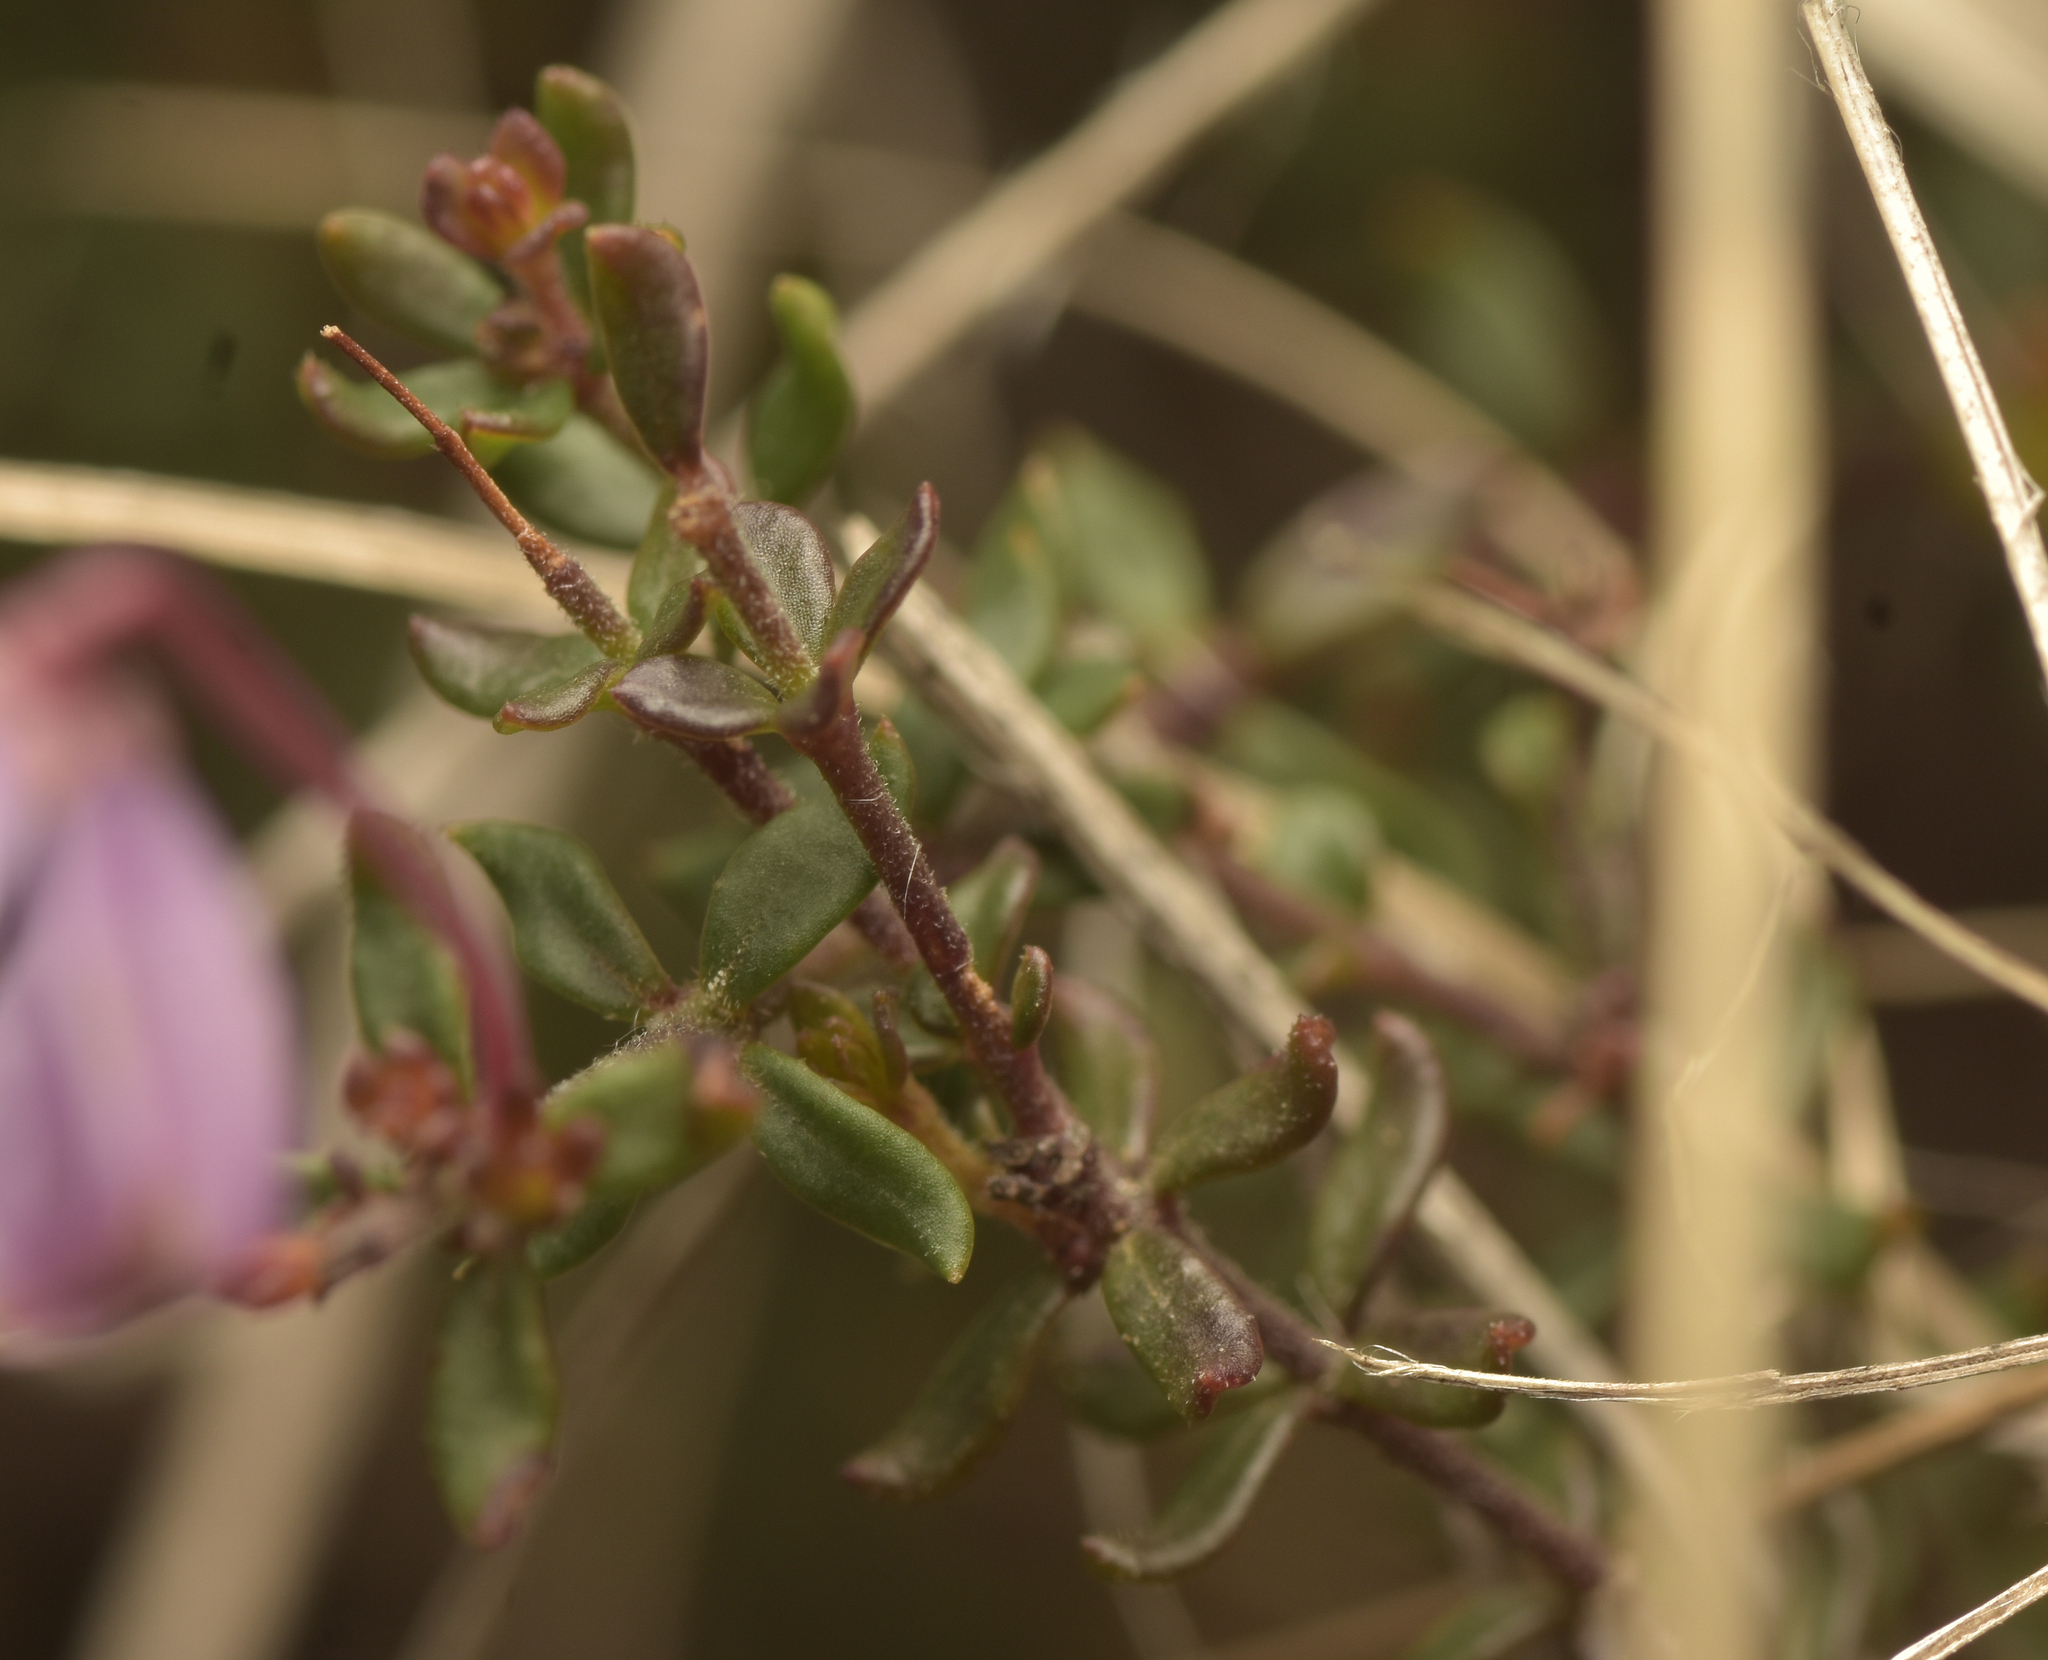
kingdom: Plantae
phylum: Tracheophyta
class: Magnoliopsida
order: Oxalidales
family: Elaeocarpaceae
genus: Tetratheca
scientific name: Tetratheca bauerifolia
